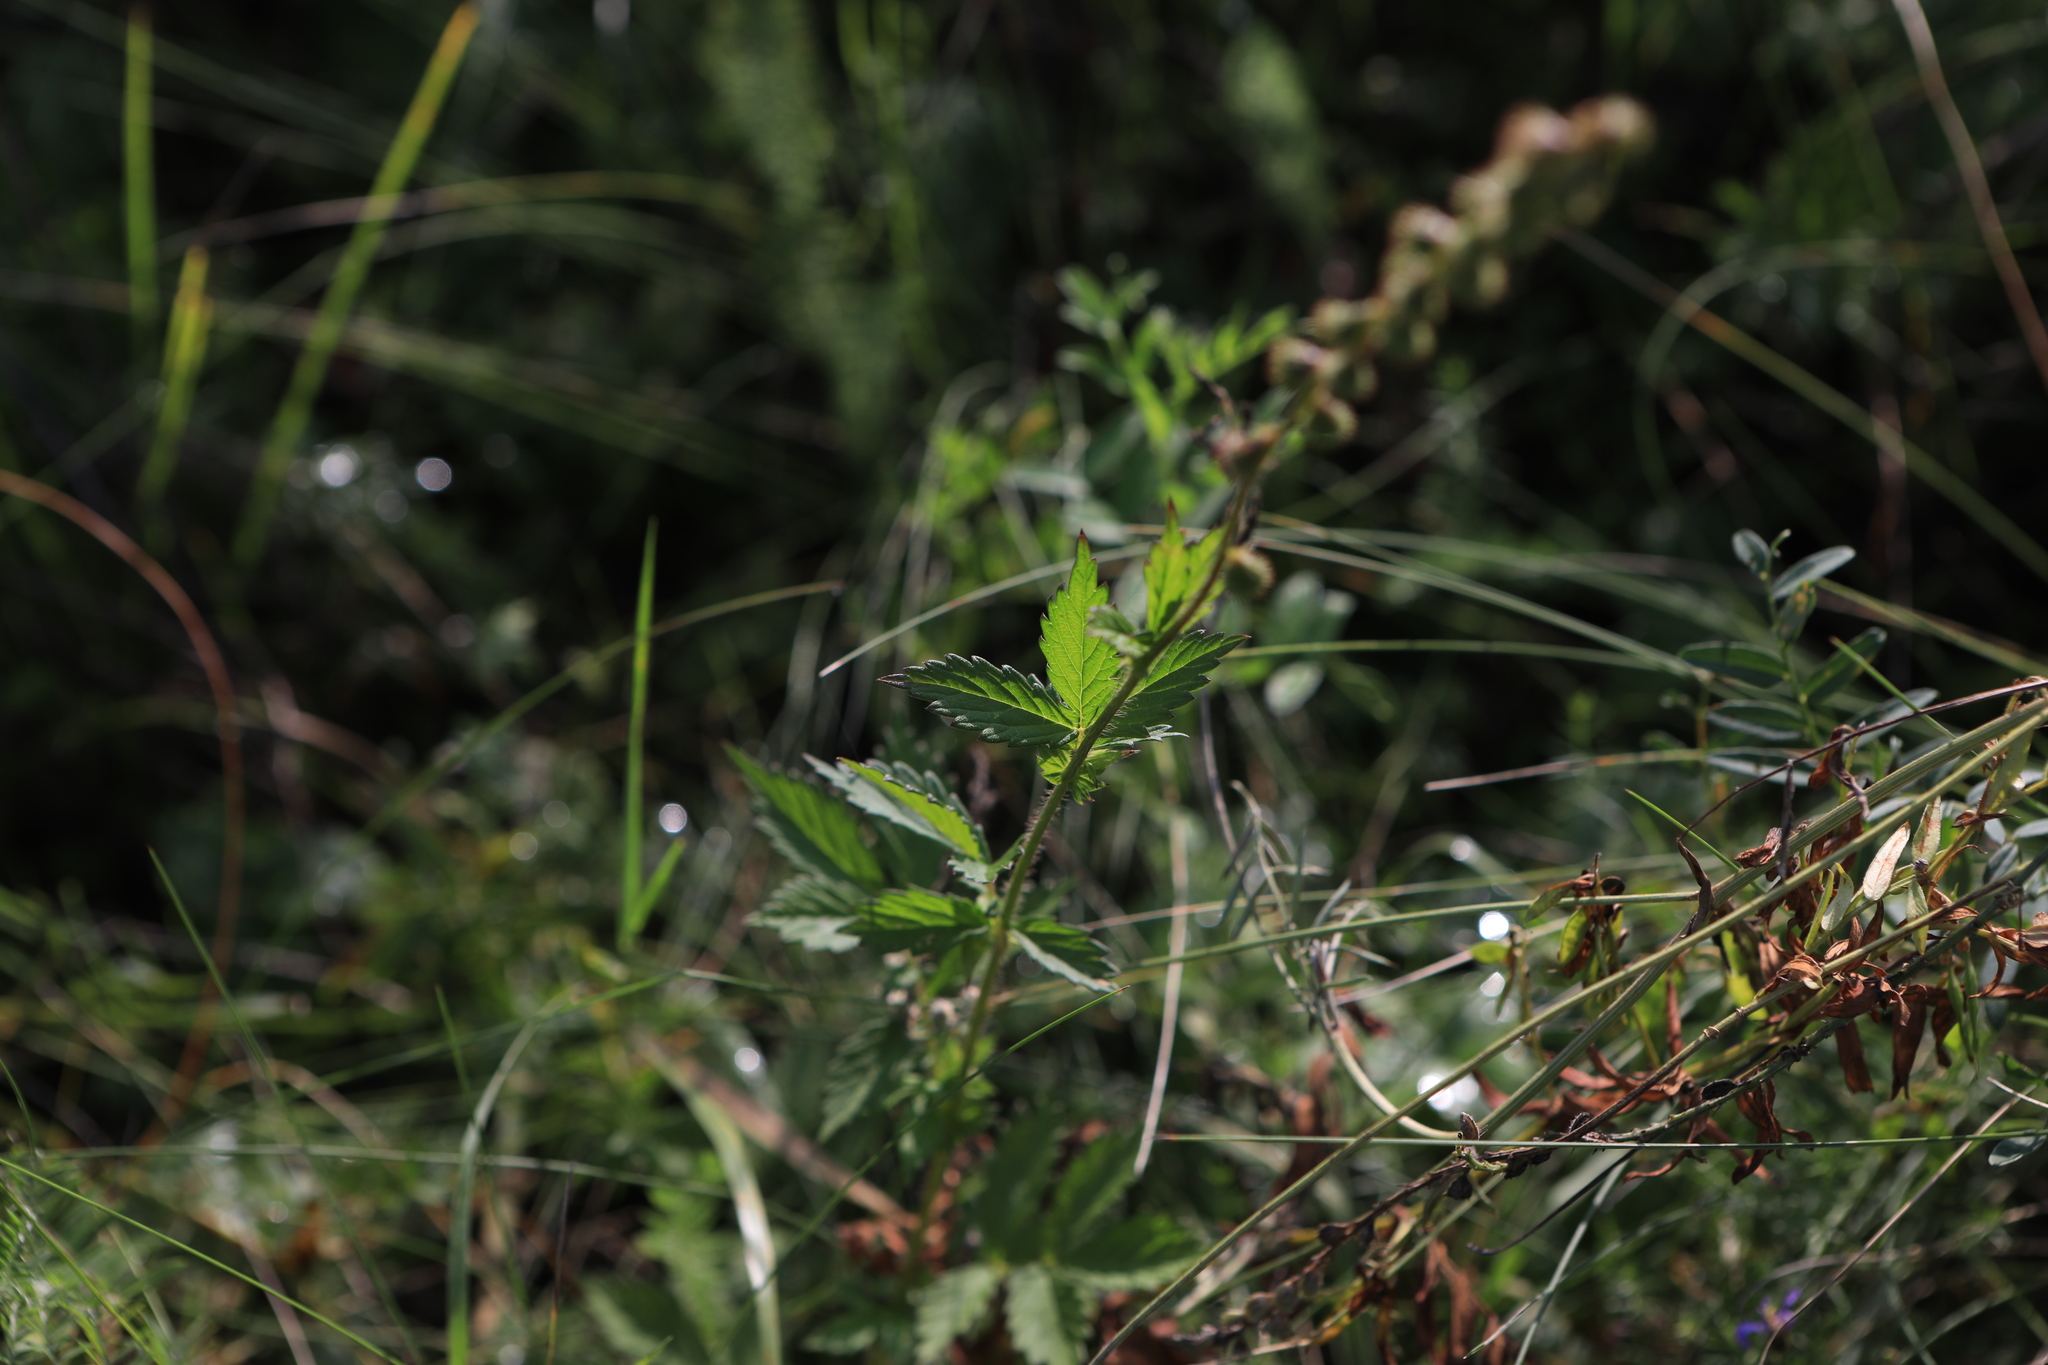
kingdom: Plantae
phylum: Tracheophyta
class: Magnoliopsida
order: Rosales
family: Rosaceae
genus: Agrimonia
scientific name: Agrimonia pilosa
